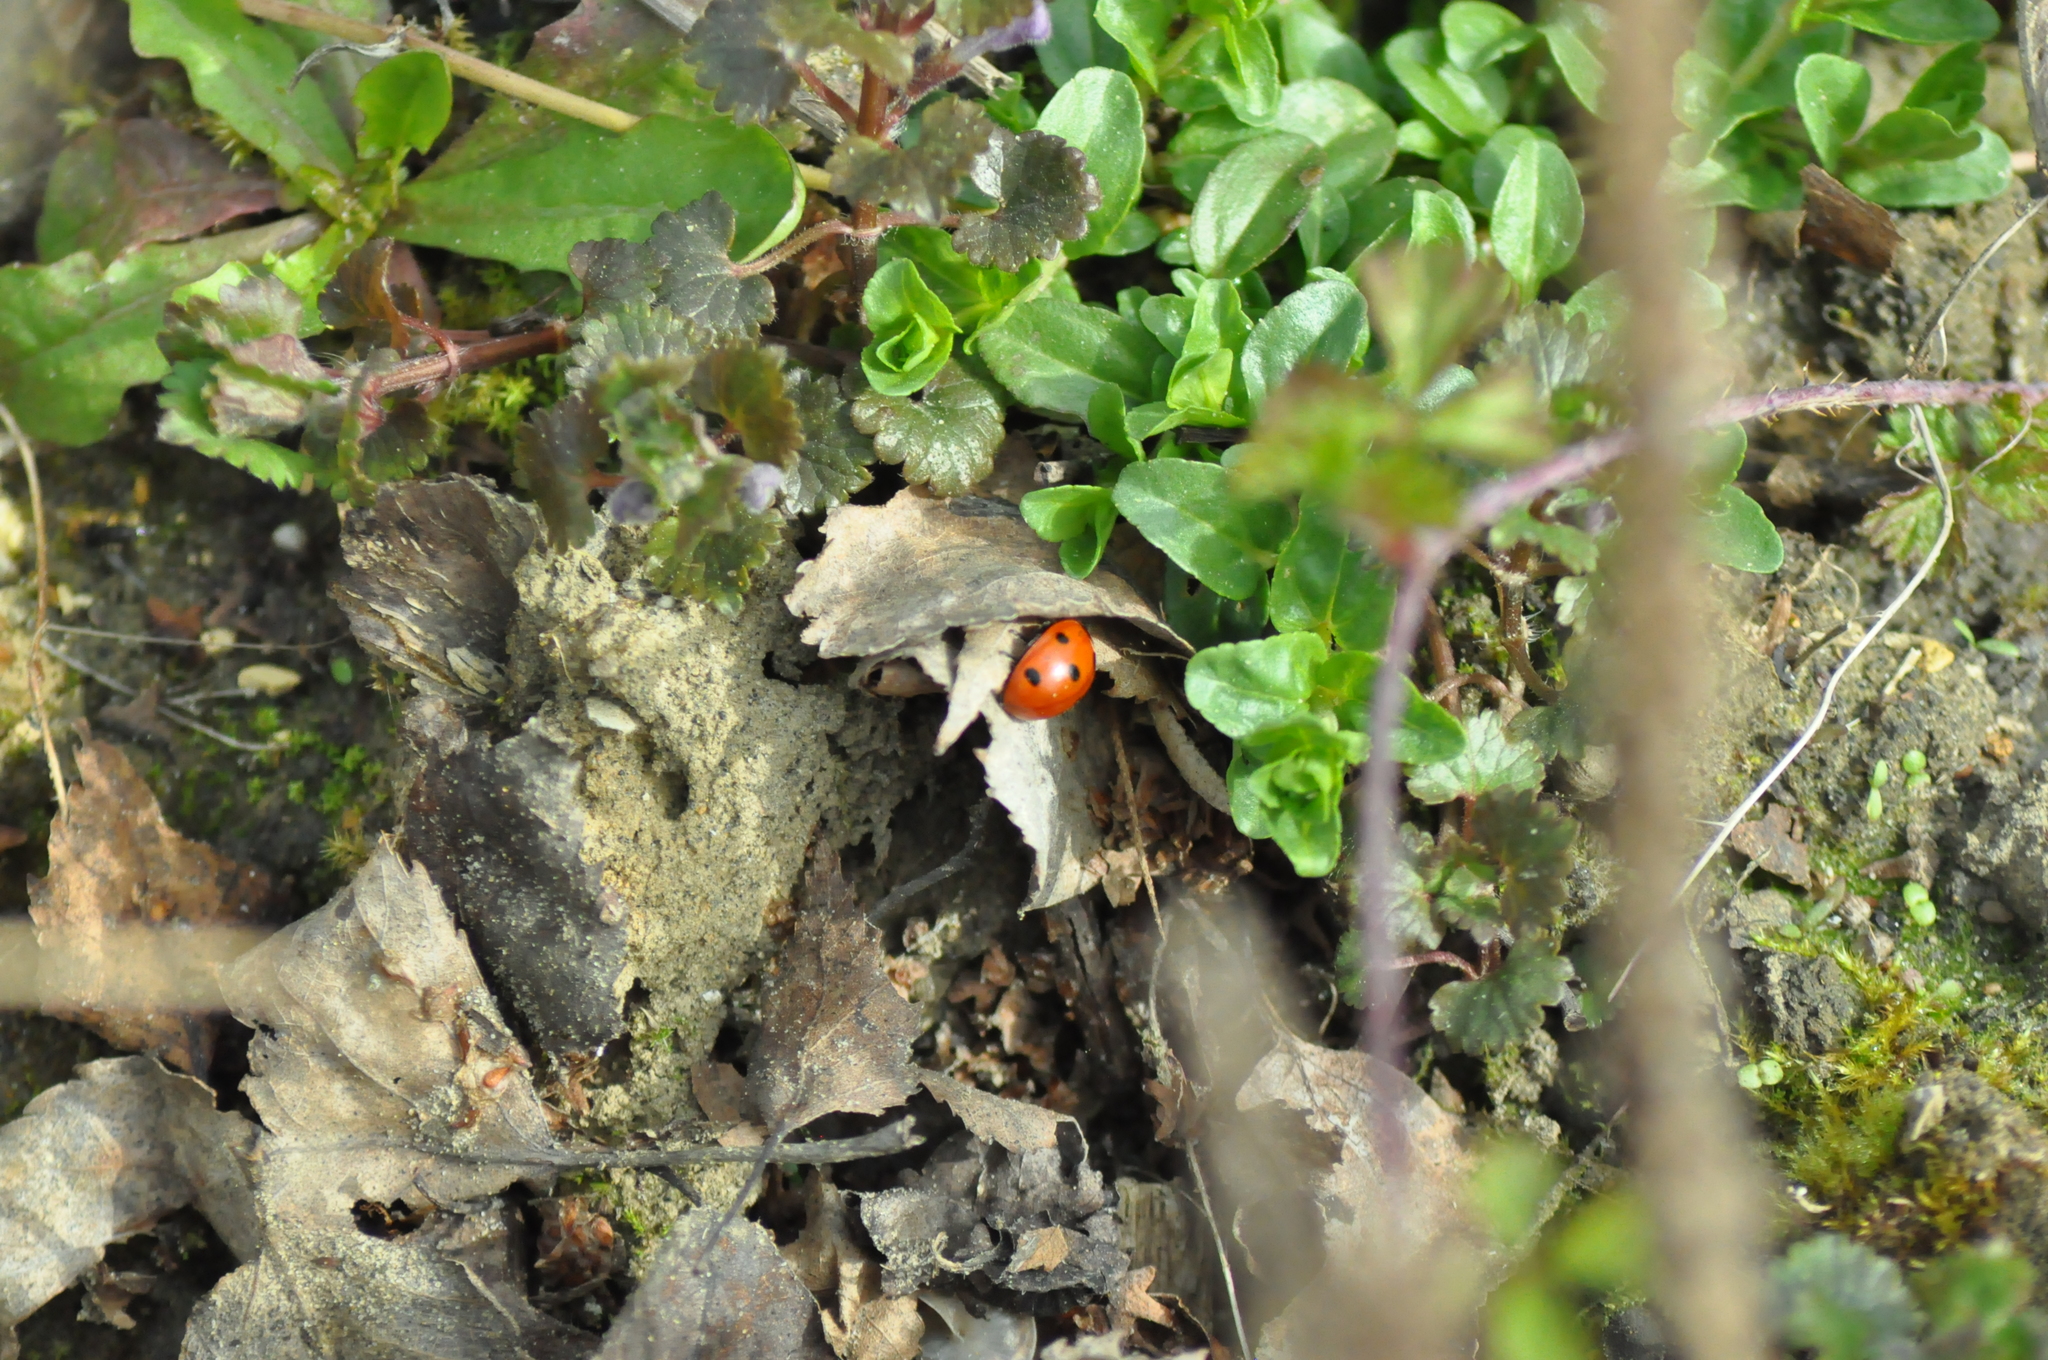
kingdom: Animalia
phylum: Arthropoda
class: Insecta
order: Coleoptera
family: Coccinellidae
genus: Coccinella
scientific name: Coccinella septempunctata
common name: Sevenspotted lady beetle
